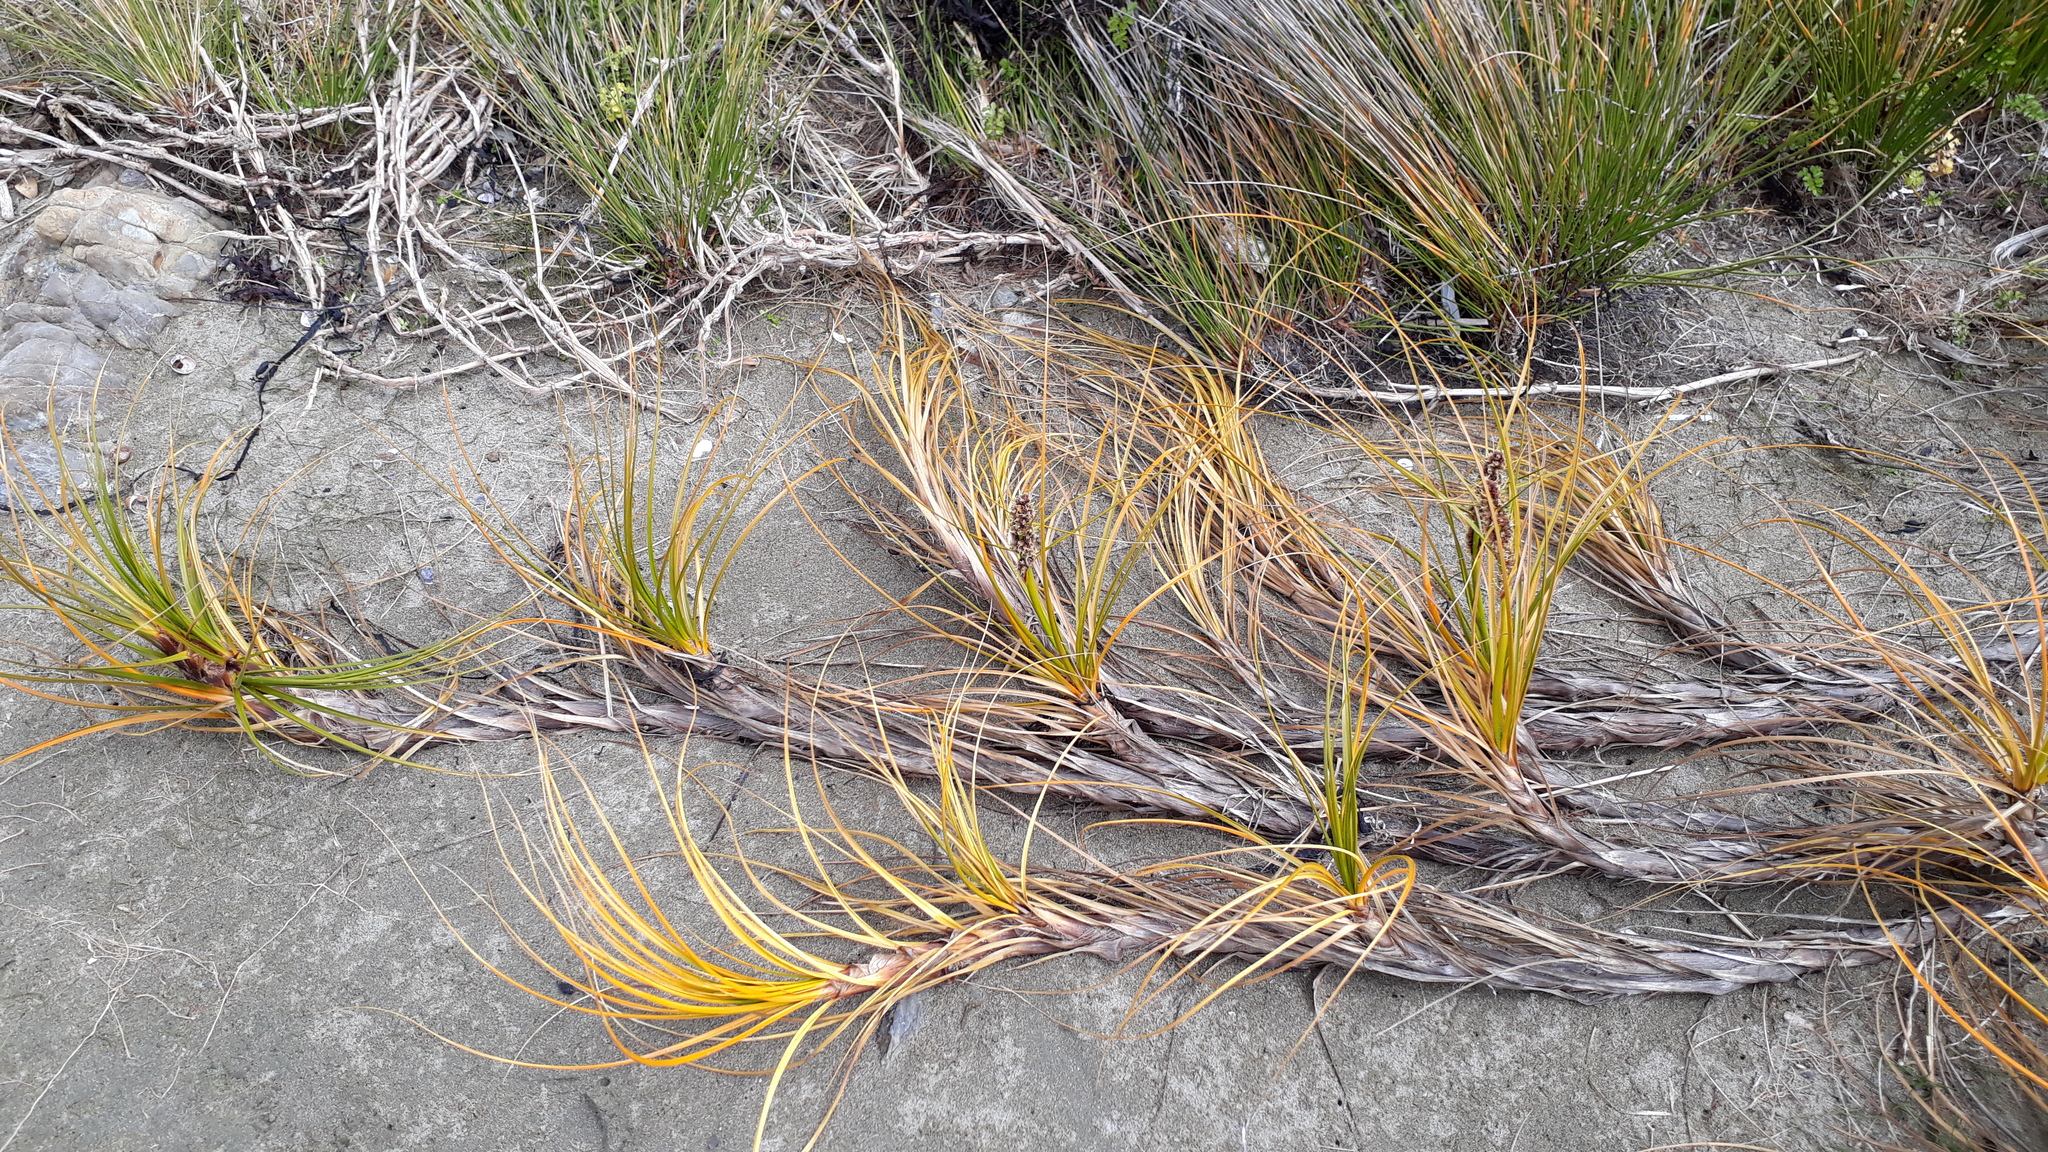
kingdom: Plantae
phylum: Tracheophyta
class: Liliopsida
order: Poales
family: Cyperaceae
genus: Ficinia
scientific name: Ficinia spiralis
